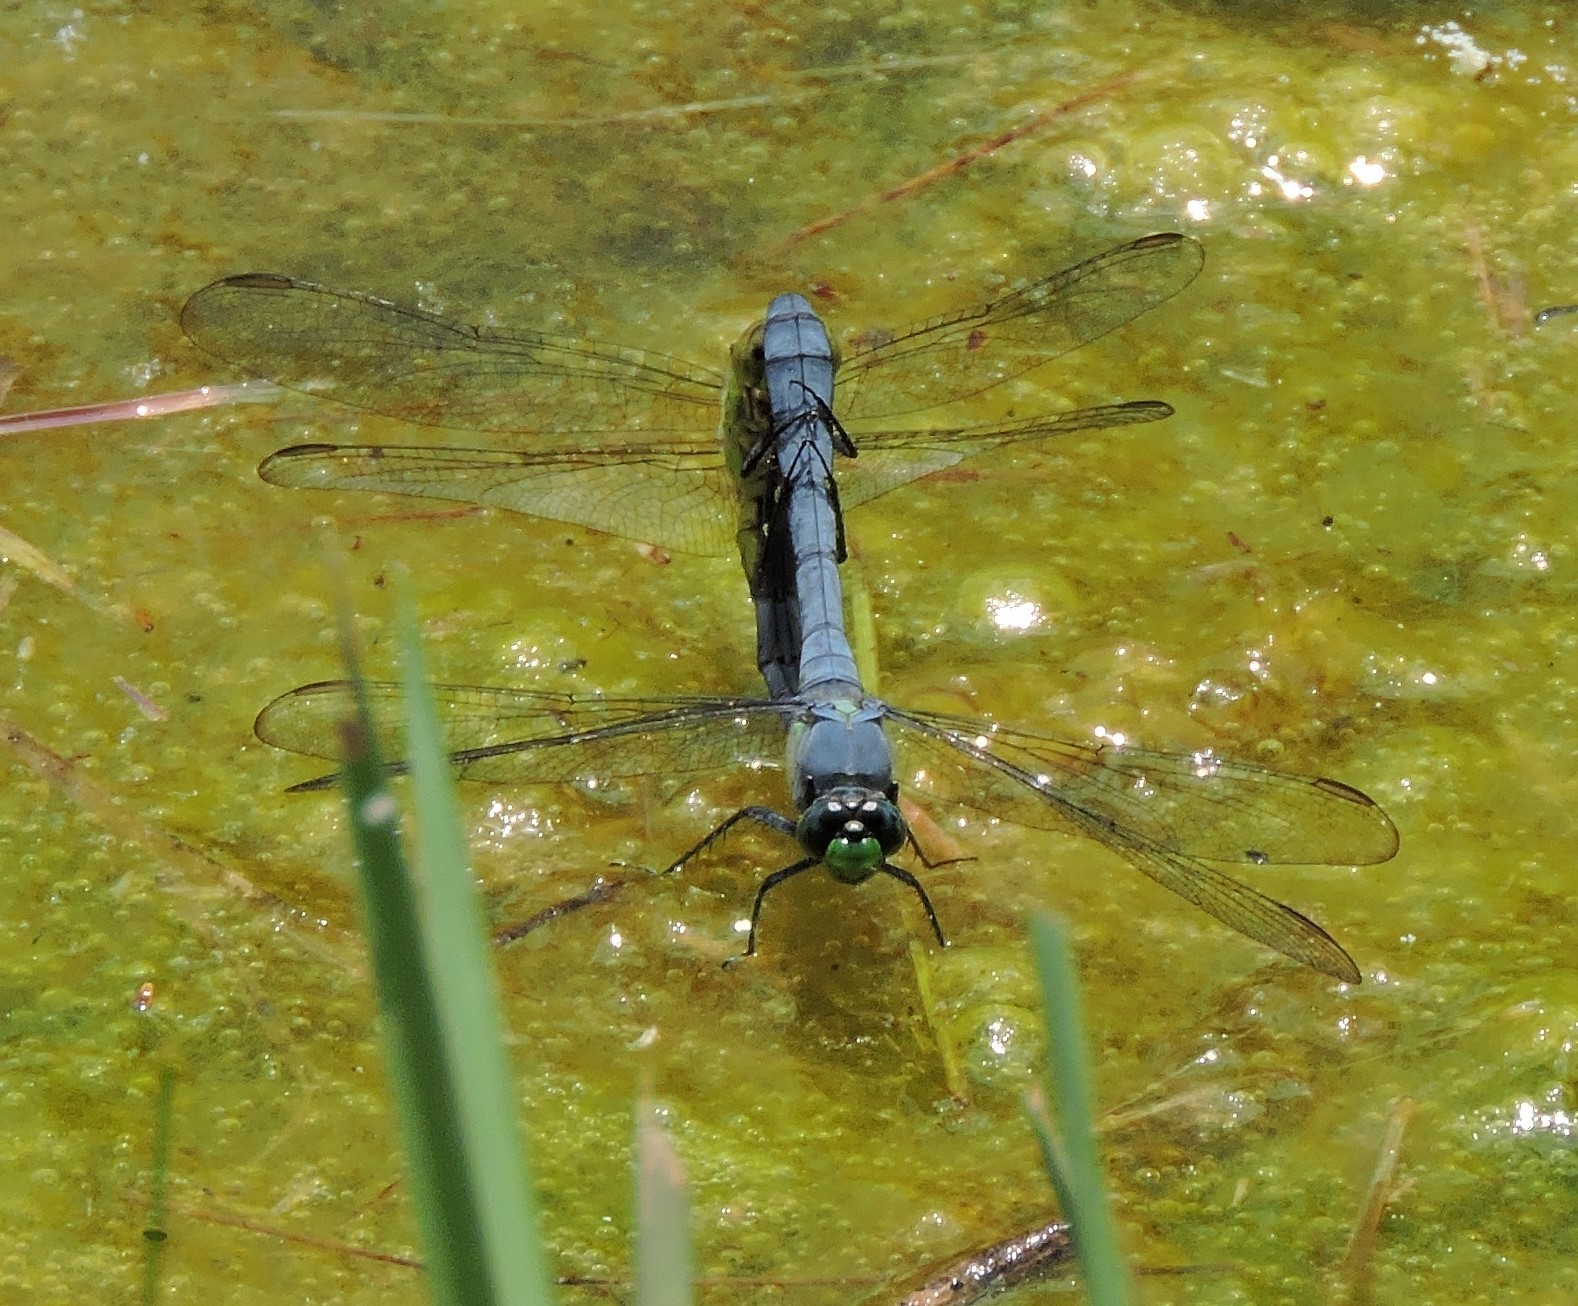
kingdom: Animalia
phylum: Arthropoda
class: Insecta
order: Odonata
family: Libellulidae
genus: Erythemis
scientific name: Erythemis simplicicollis
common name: Eastern pondhawk
